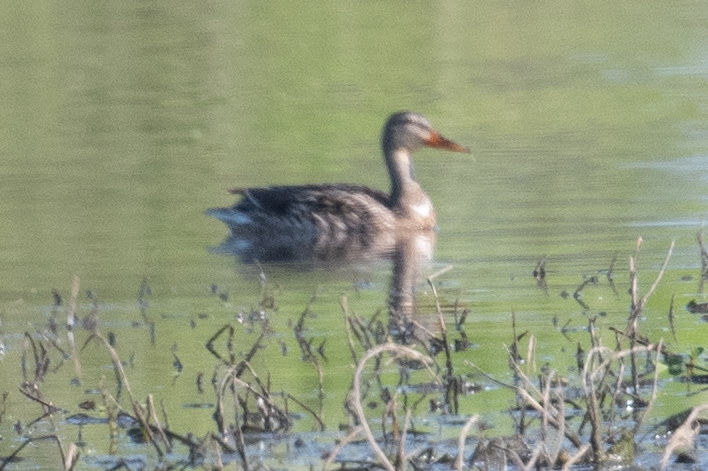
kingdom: Animalia
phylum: Chordata
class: Aves
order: Anseriformes
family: Anatidae
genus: Anas
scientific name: Anas platyrhynchos
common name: Mallard
